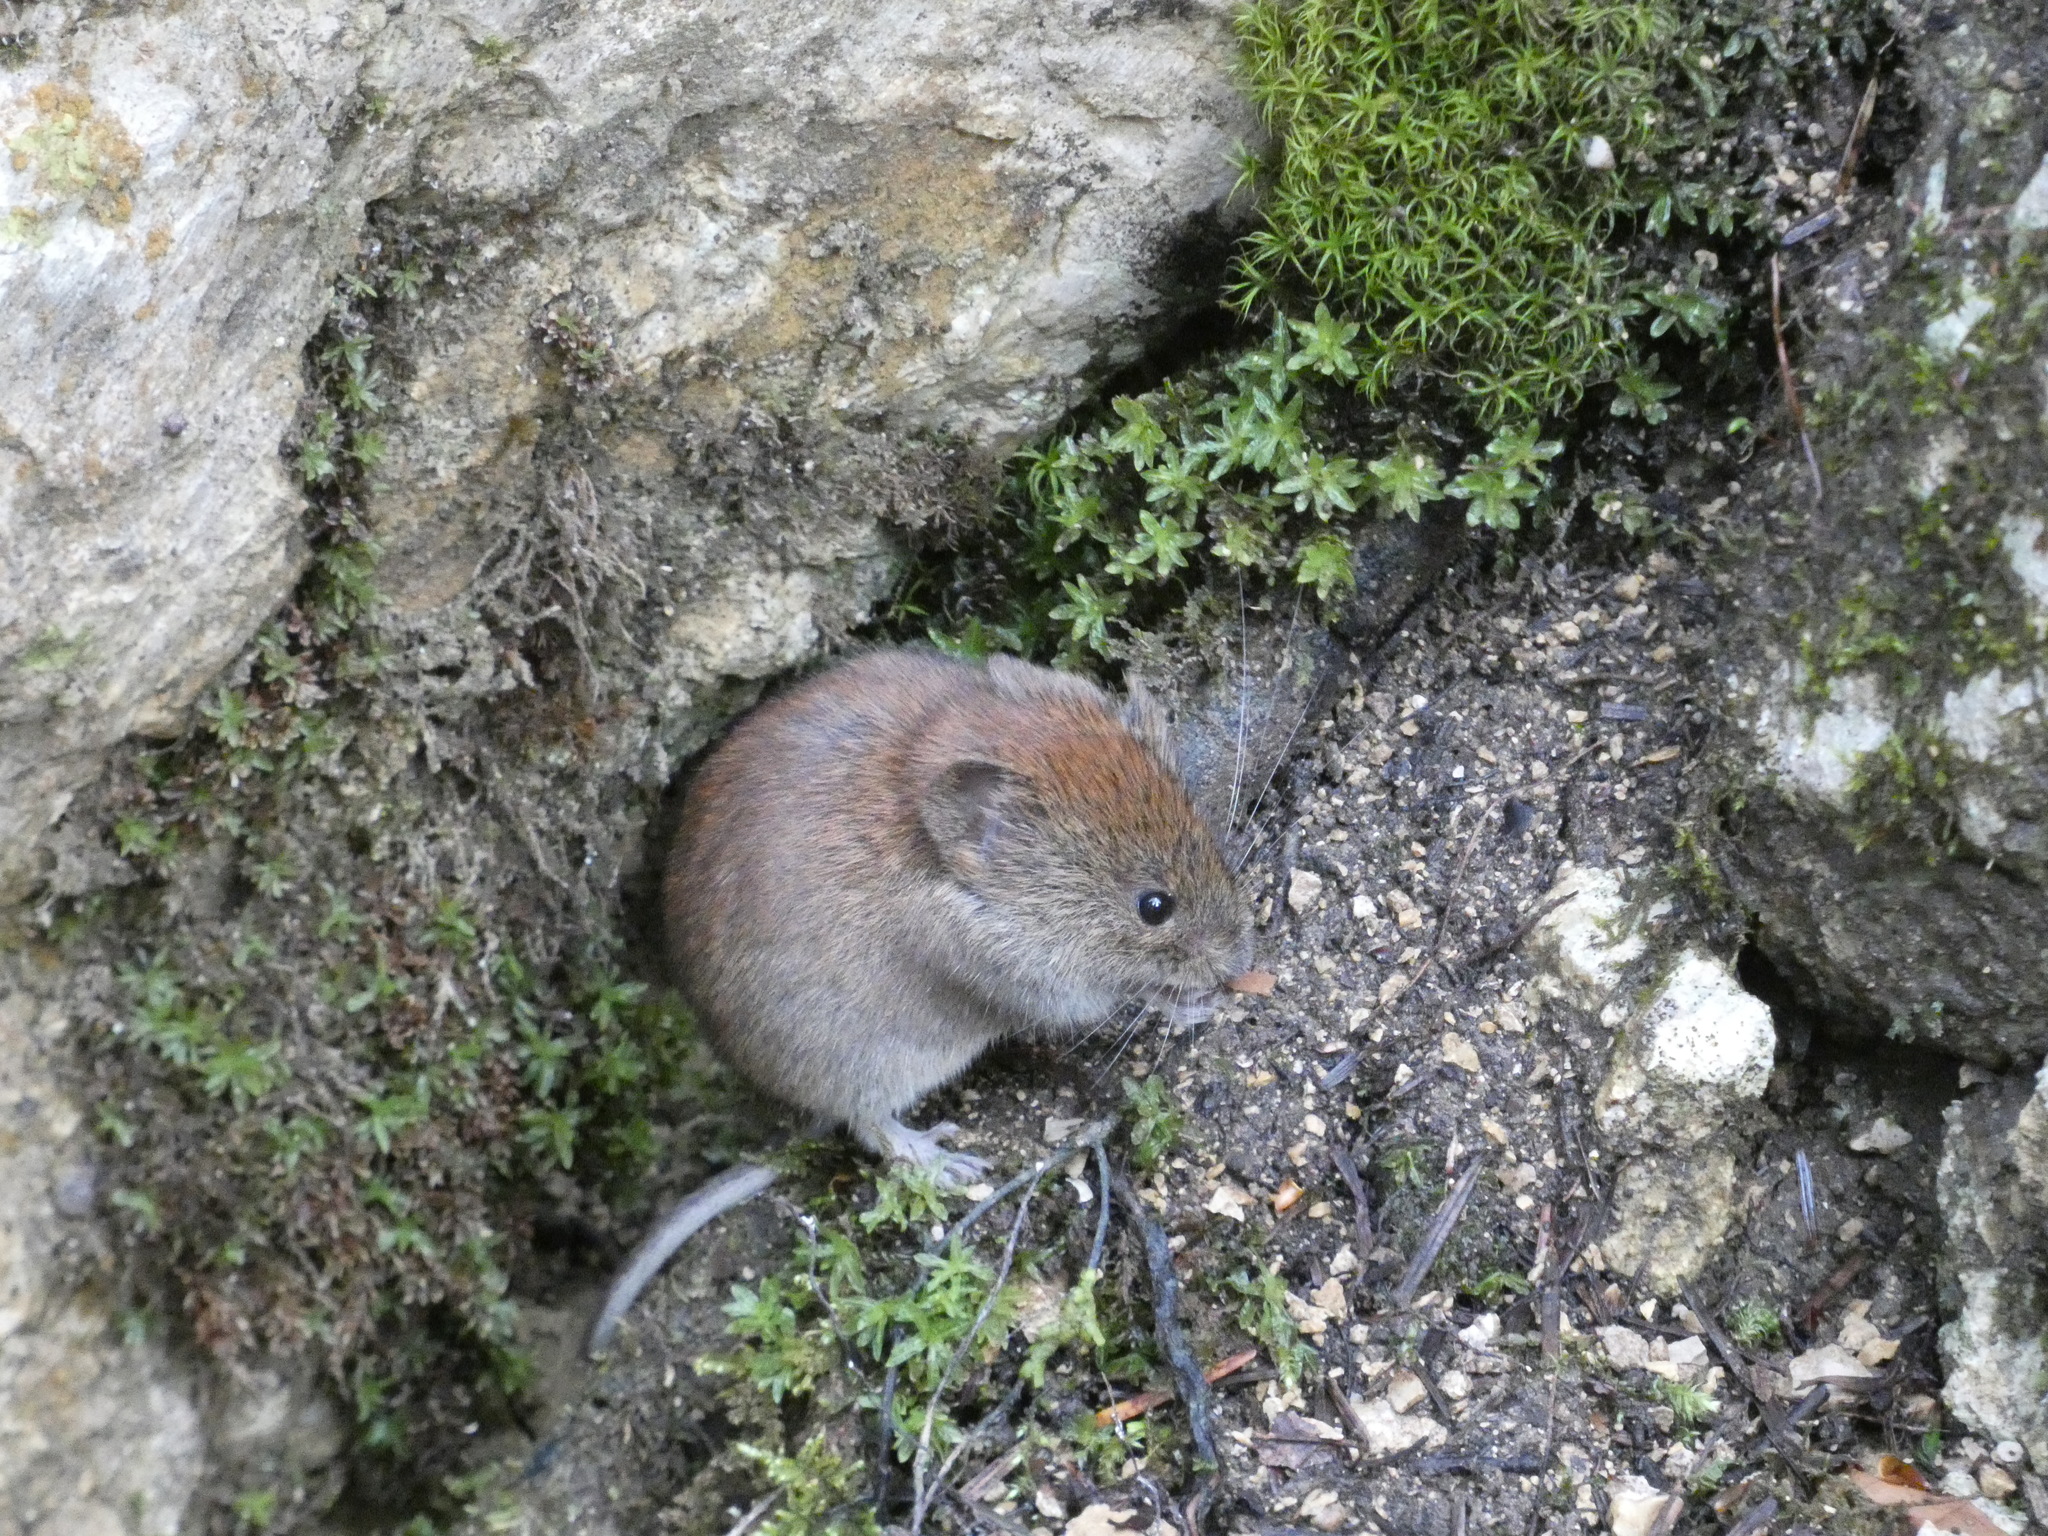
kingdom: Animalia
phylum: Chordata
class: Mammalia
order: Rodentia
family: Cricetidae
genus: Myodes
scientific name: Myodes glareolus
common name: Bank vole
